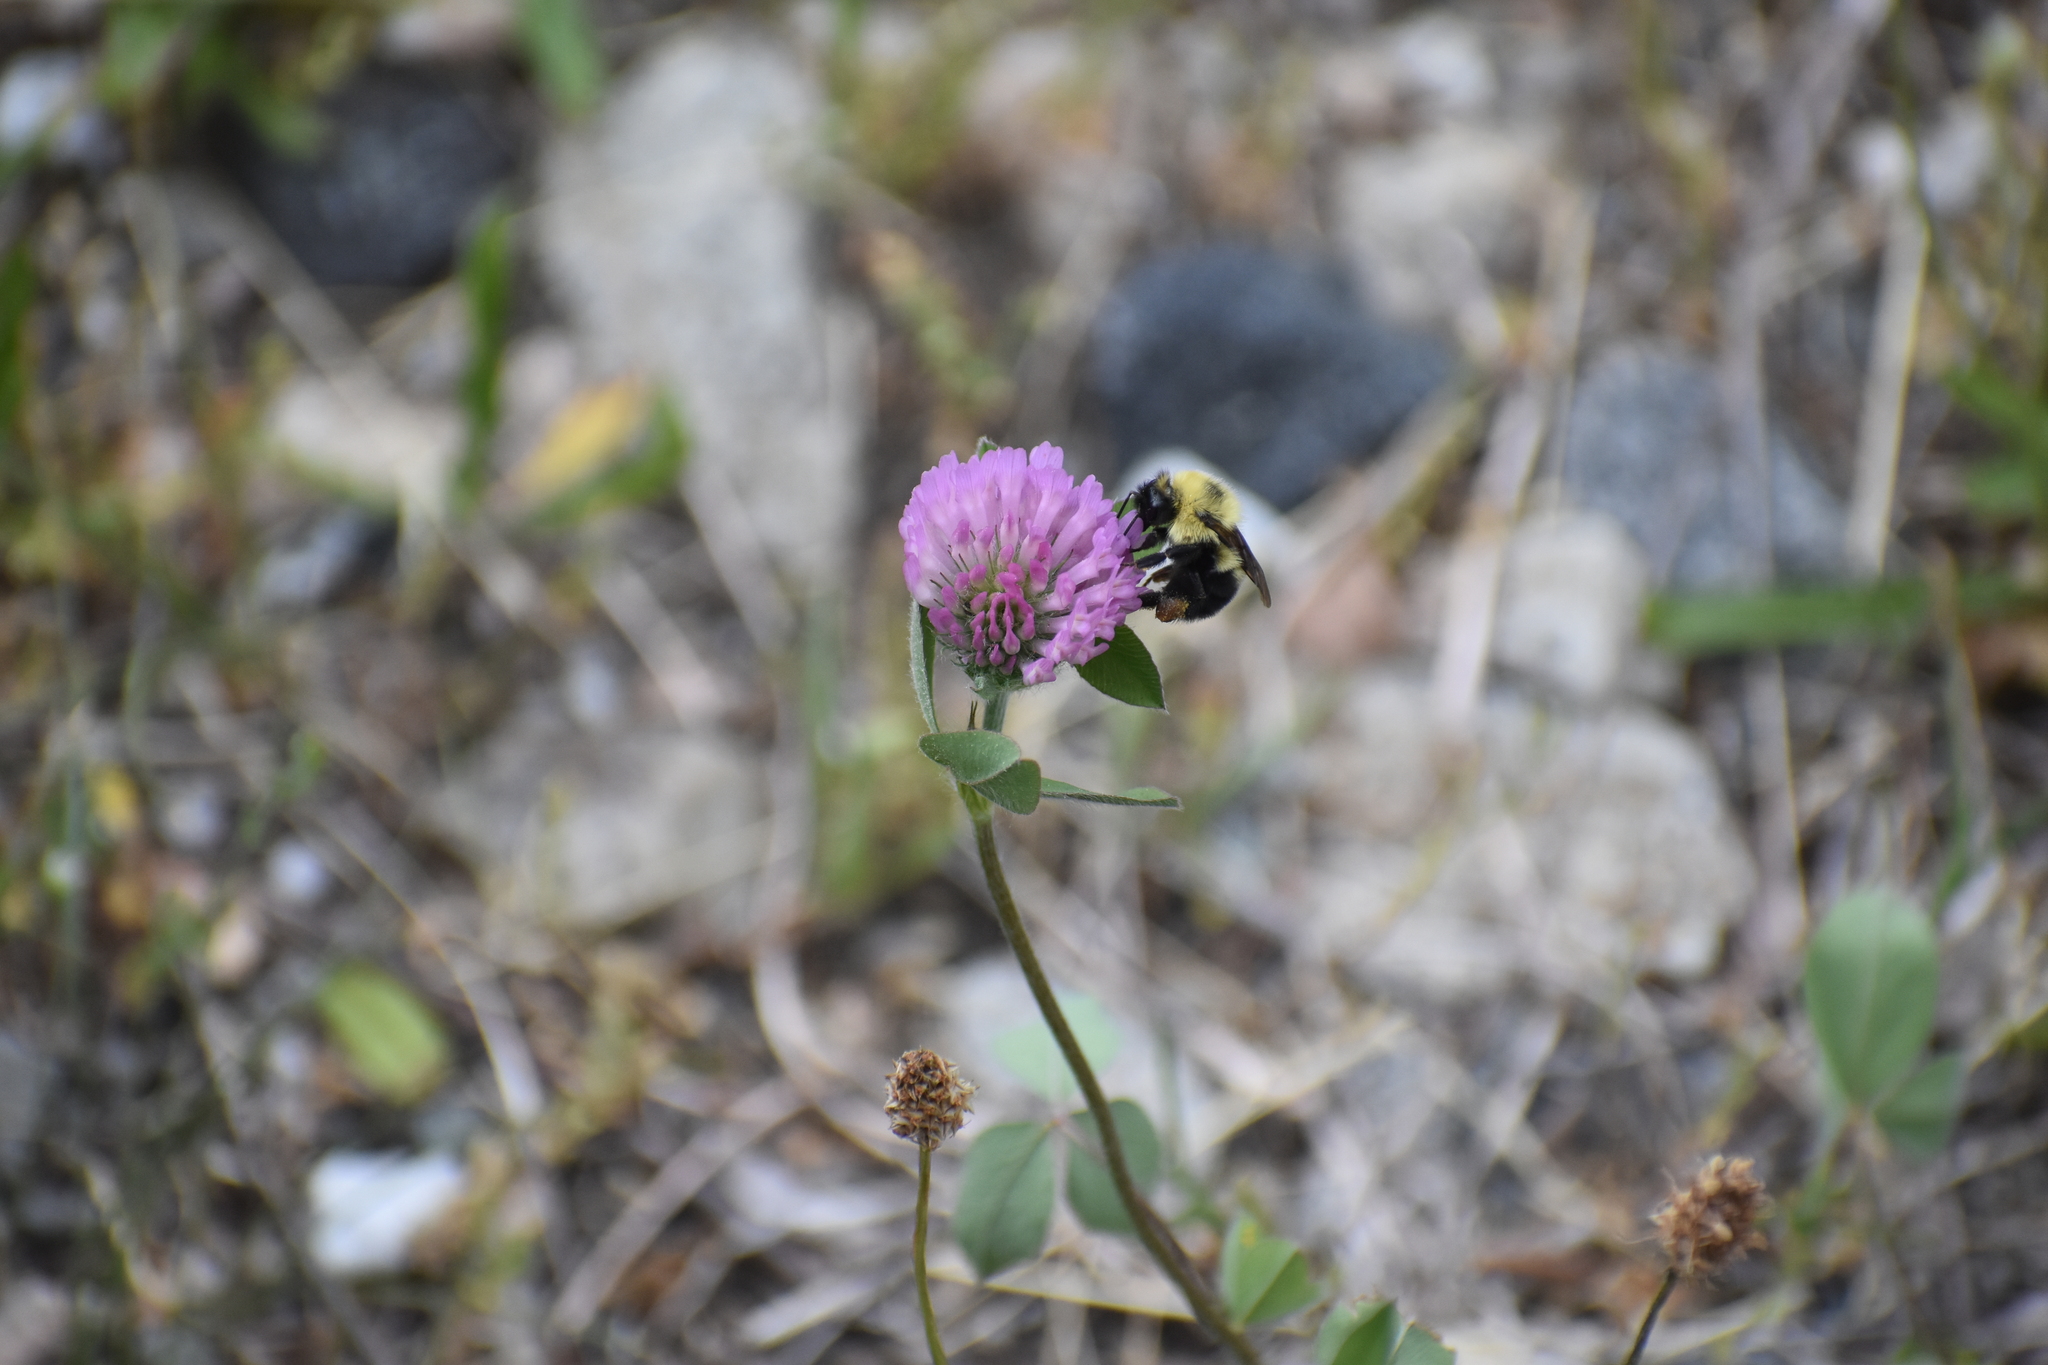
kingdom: Animalia
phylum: Arthropoda
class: Insecta
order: Hymenoptera
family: Apidae
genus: Bombus
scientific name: Bombus bimaculatus
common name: Two-spotted bumble bee
